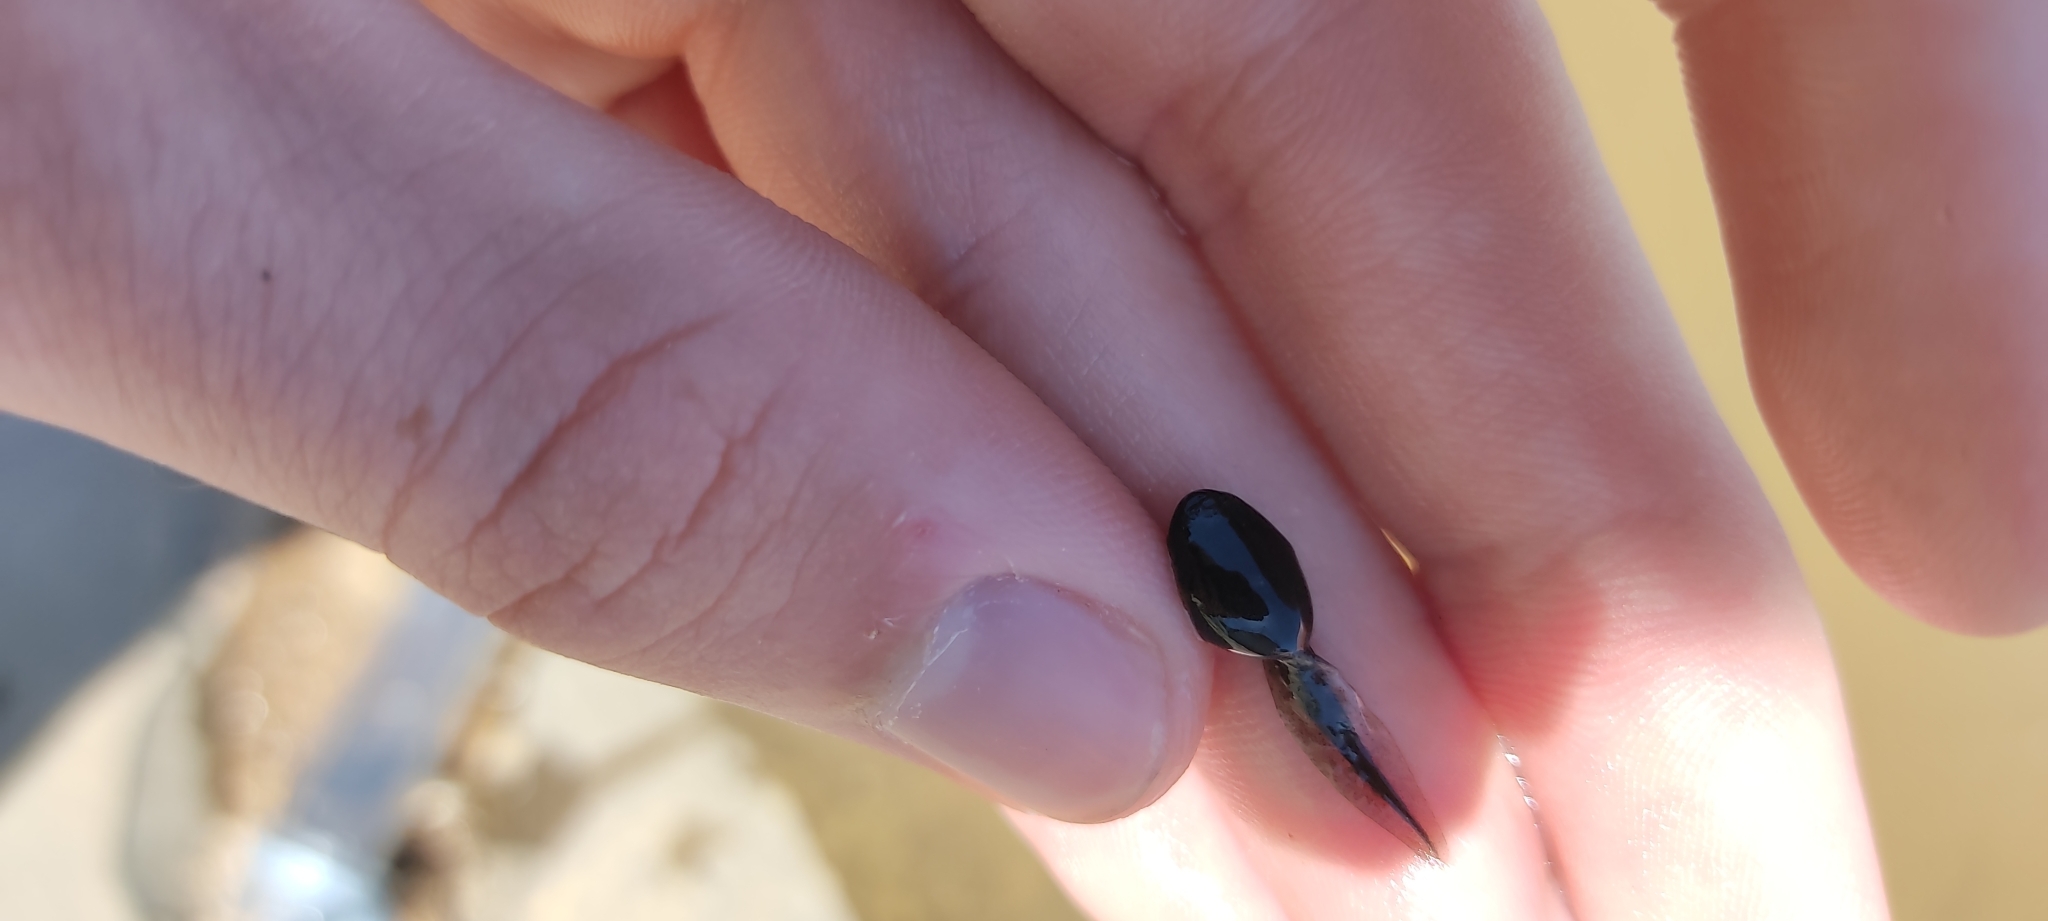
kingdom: Animalia
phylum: Chordata
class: Amphibia
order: Anura
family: Bufonidae
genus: Epidalea
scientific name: Epidalea calamita
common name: Natterjack toad
